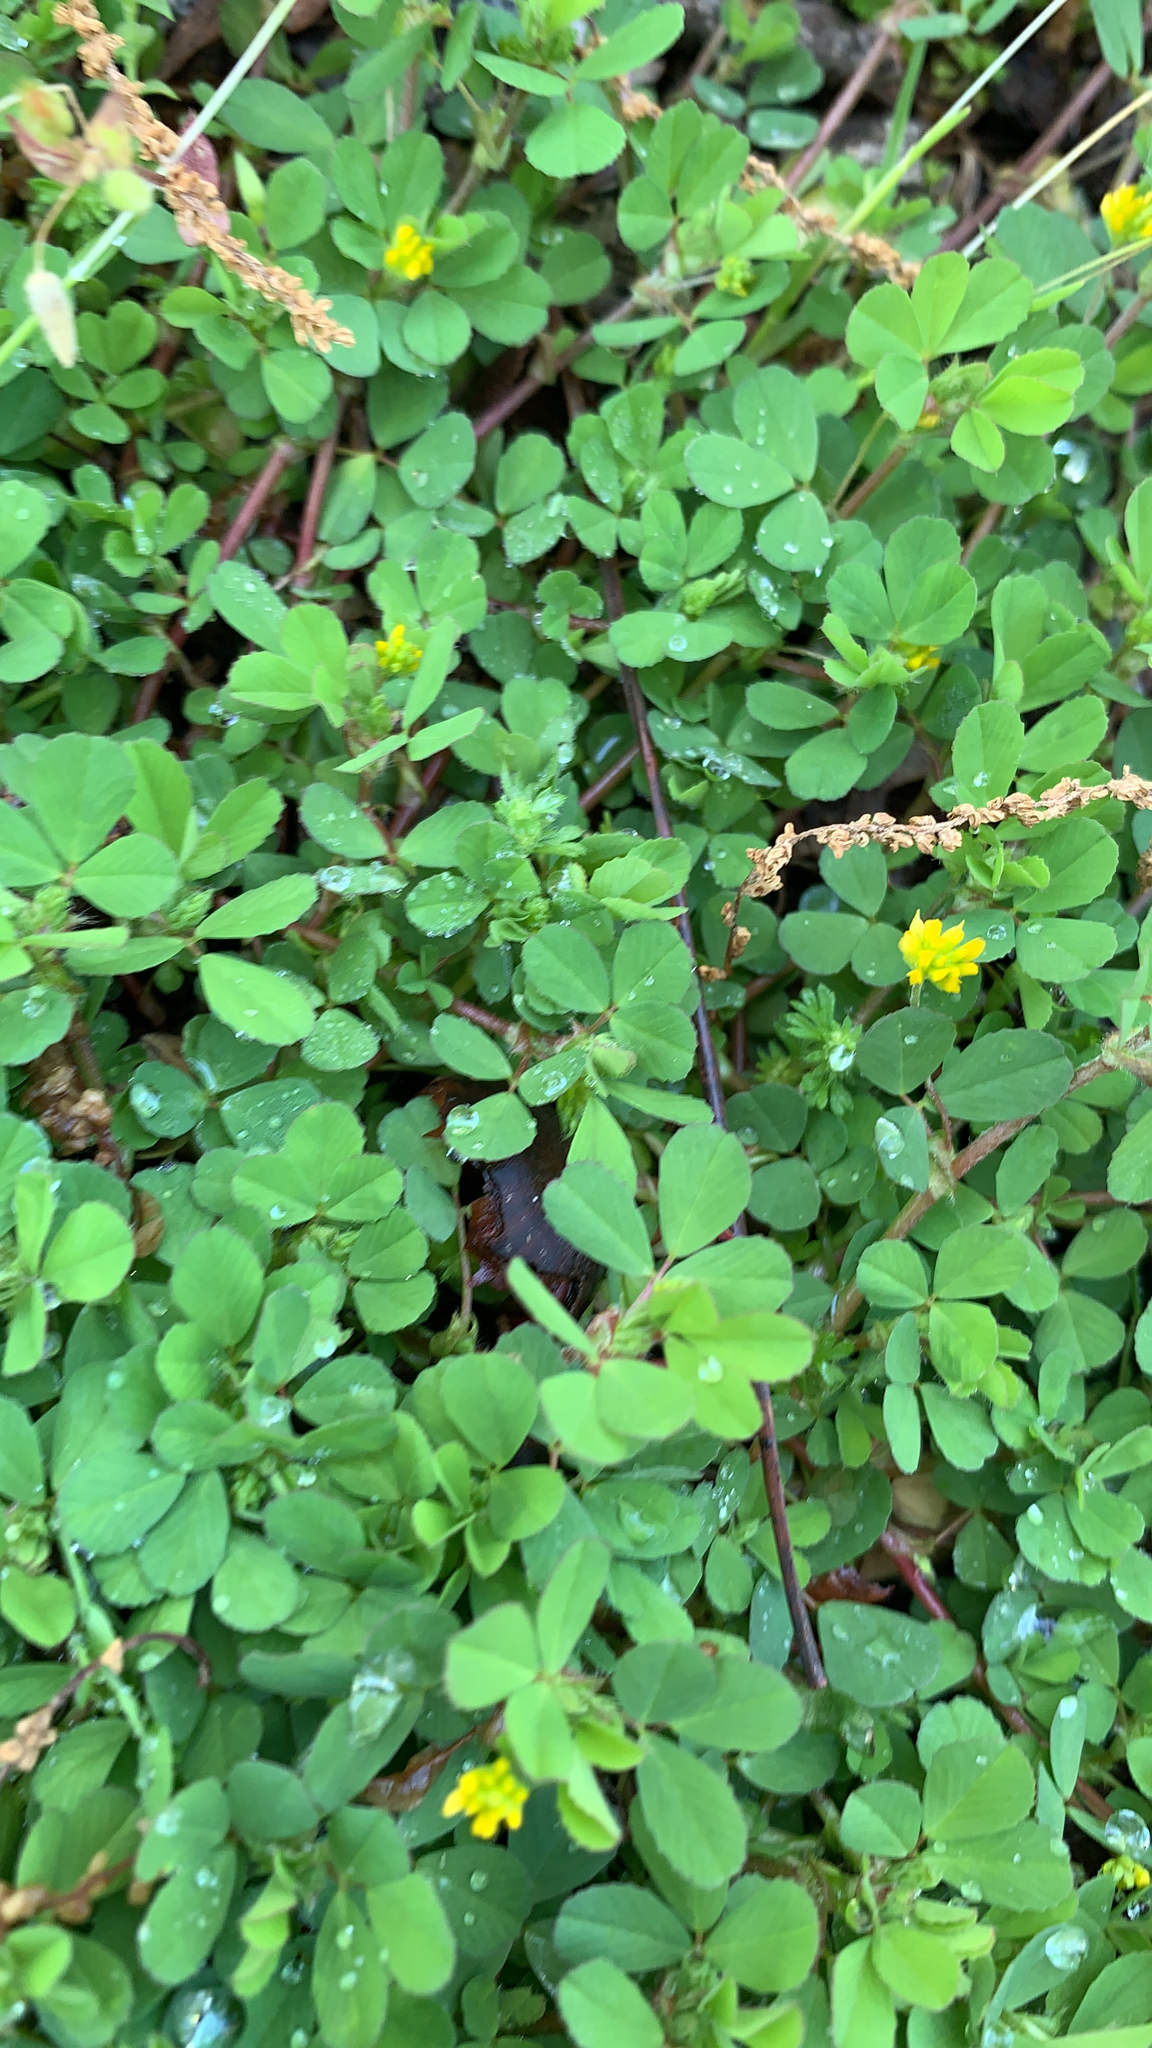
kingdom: Plantae
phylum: Tracheophyta
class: Magnoliopsida
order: Fabales
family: Fabaceae
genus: Trifolium
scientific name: Trifolium dubium
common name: Suckling clover
